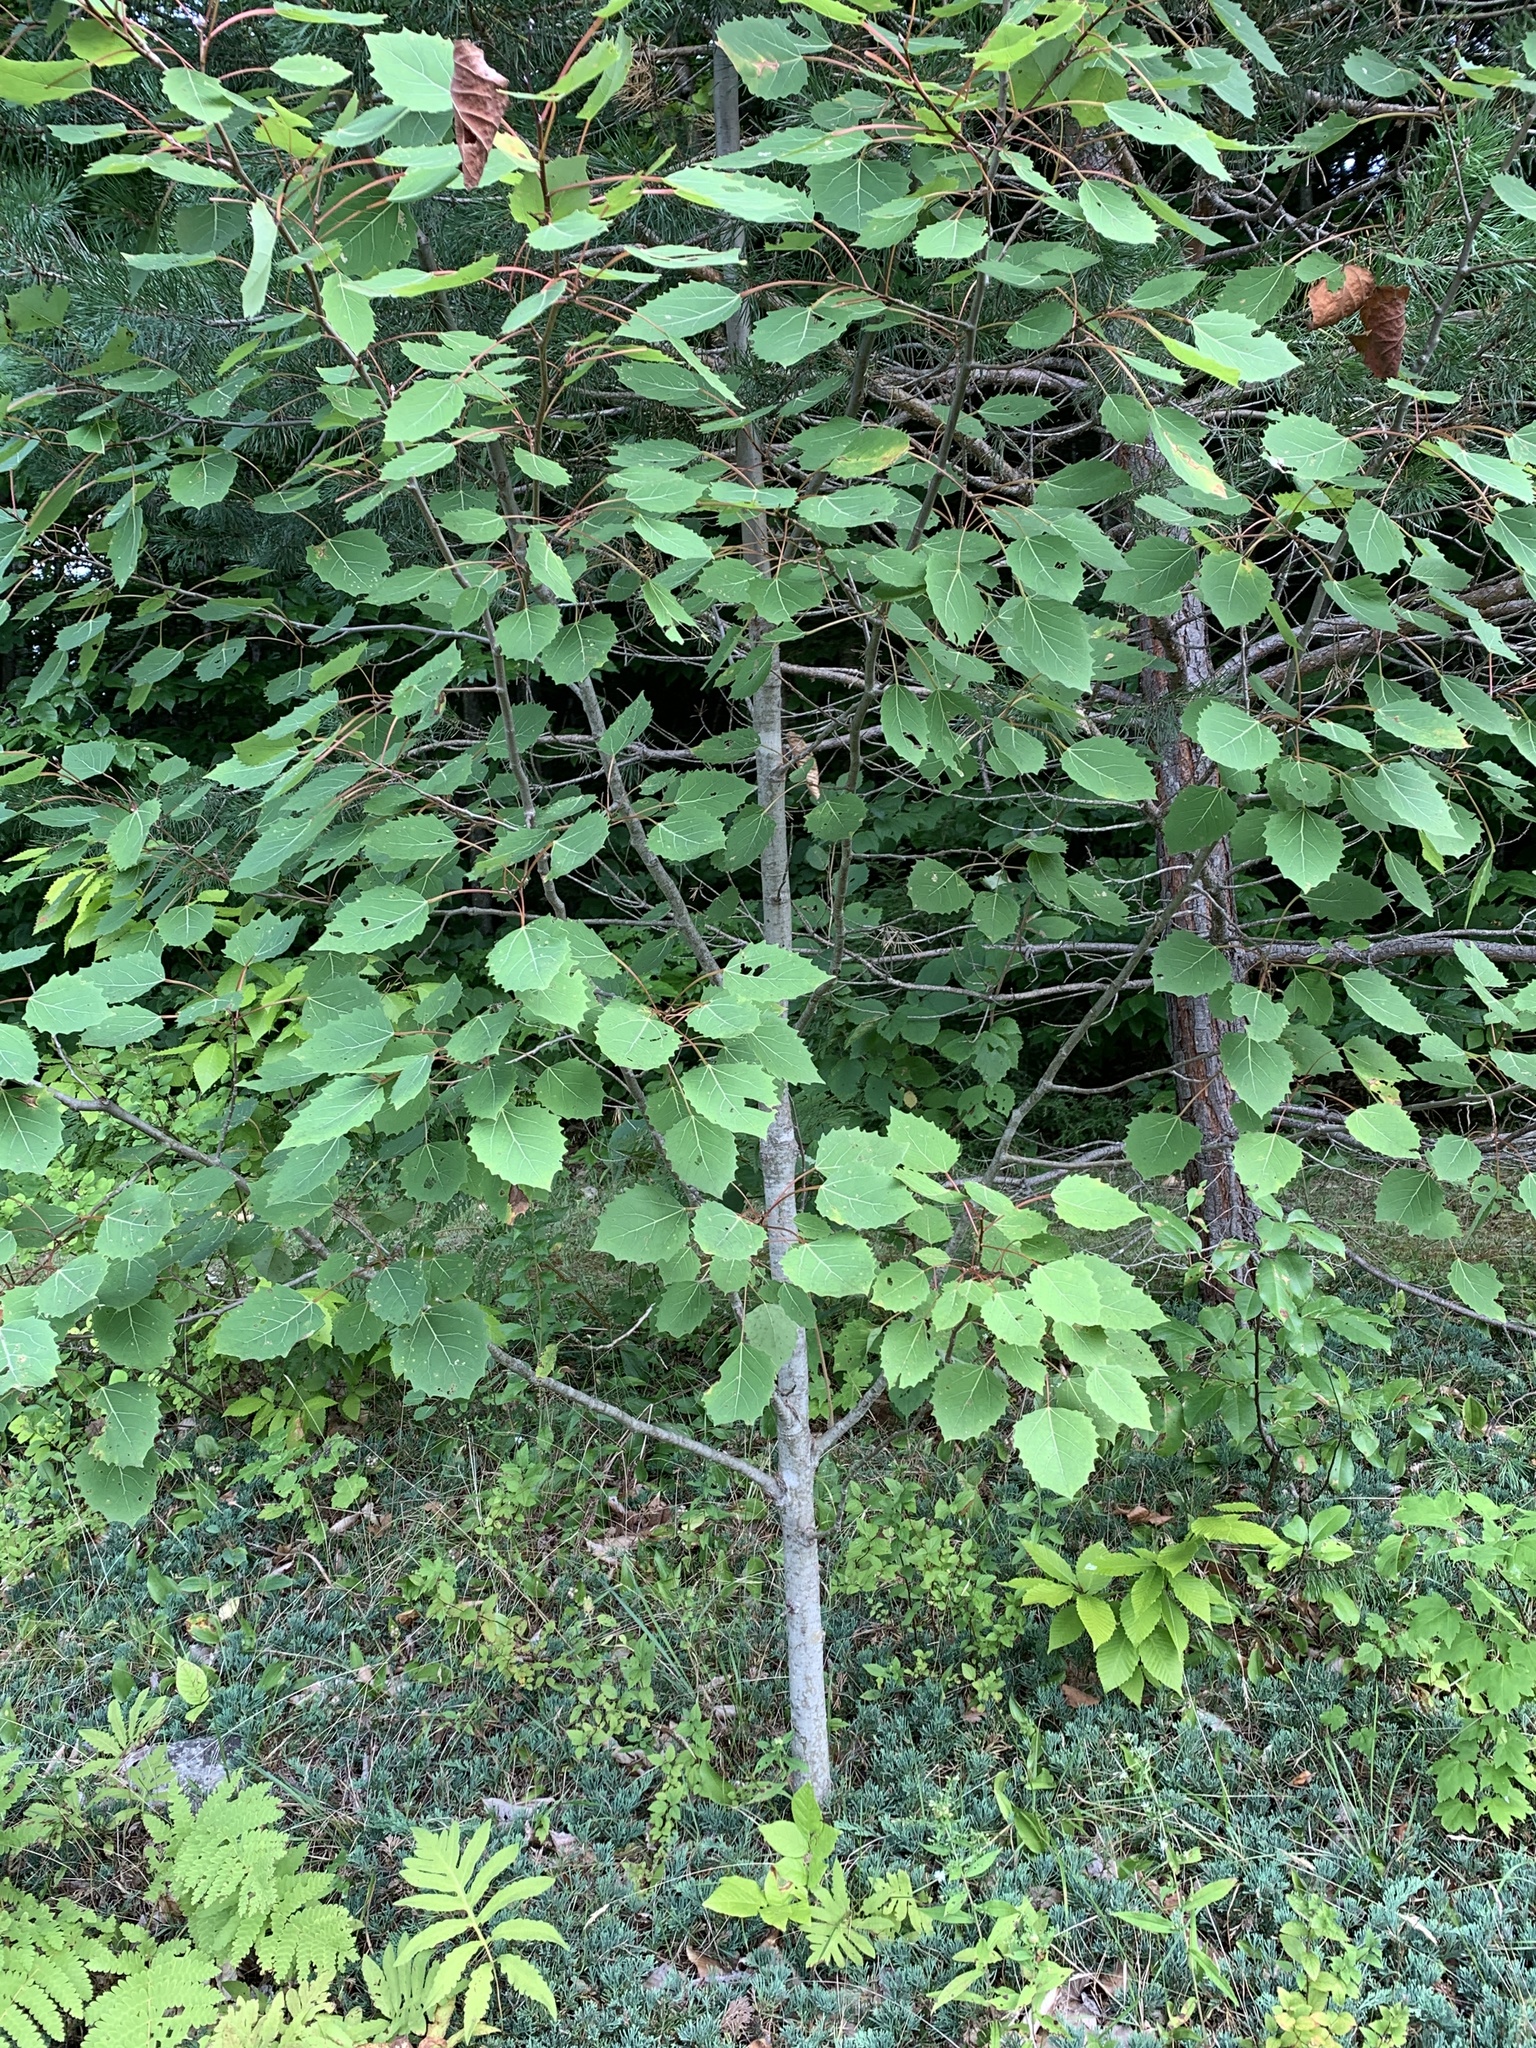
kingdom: Plantae
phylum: Tracheophyta
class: Magnoliopsida
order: Malpighiales
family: Salicaceae
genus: Populus
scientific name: Populus grandidentata
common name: Bigtooth aspen
